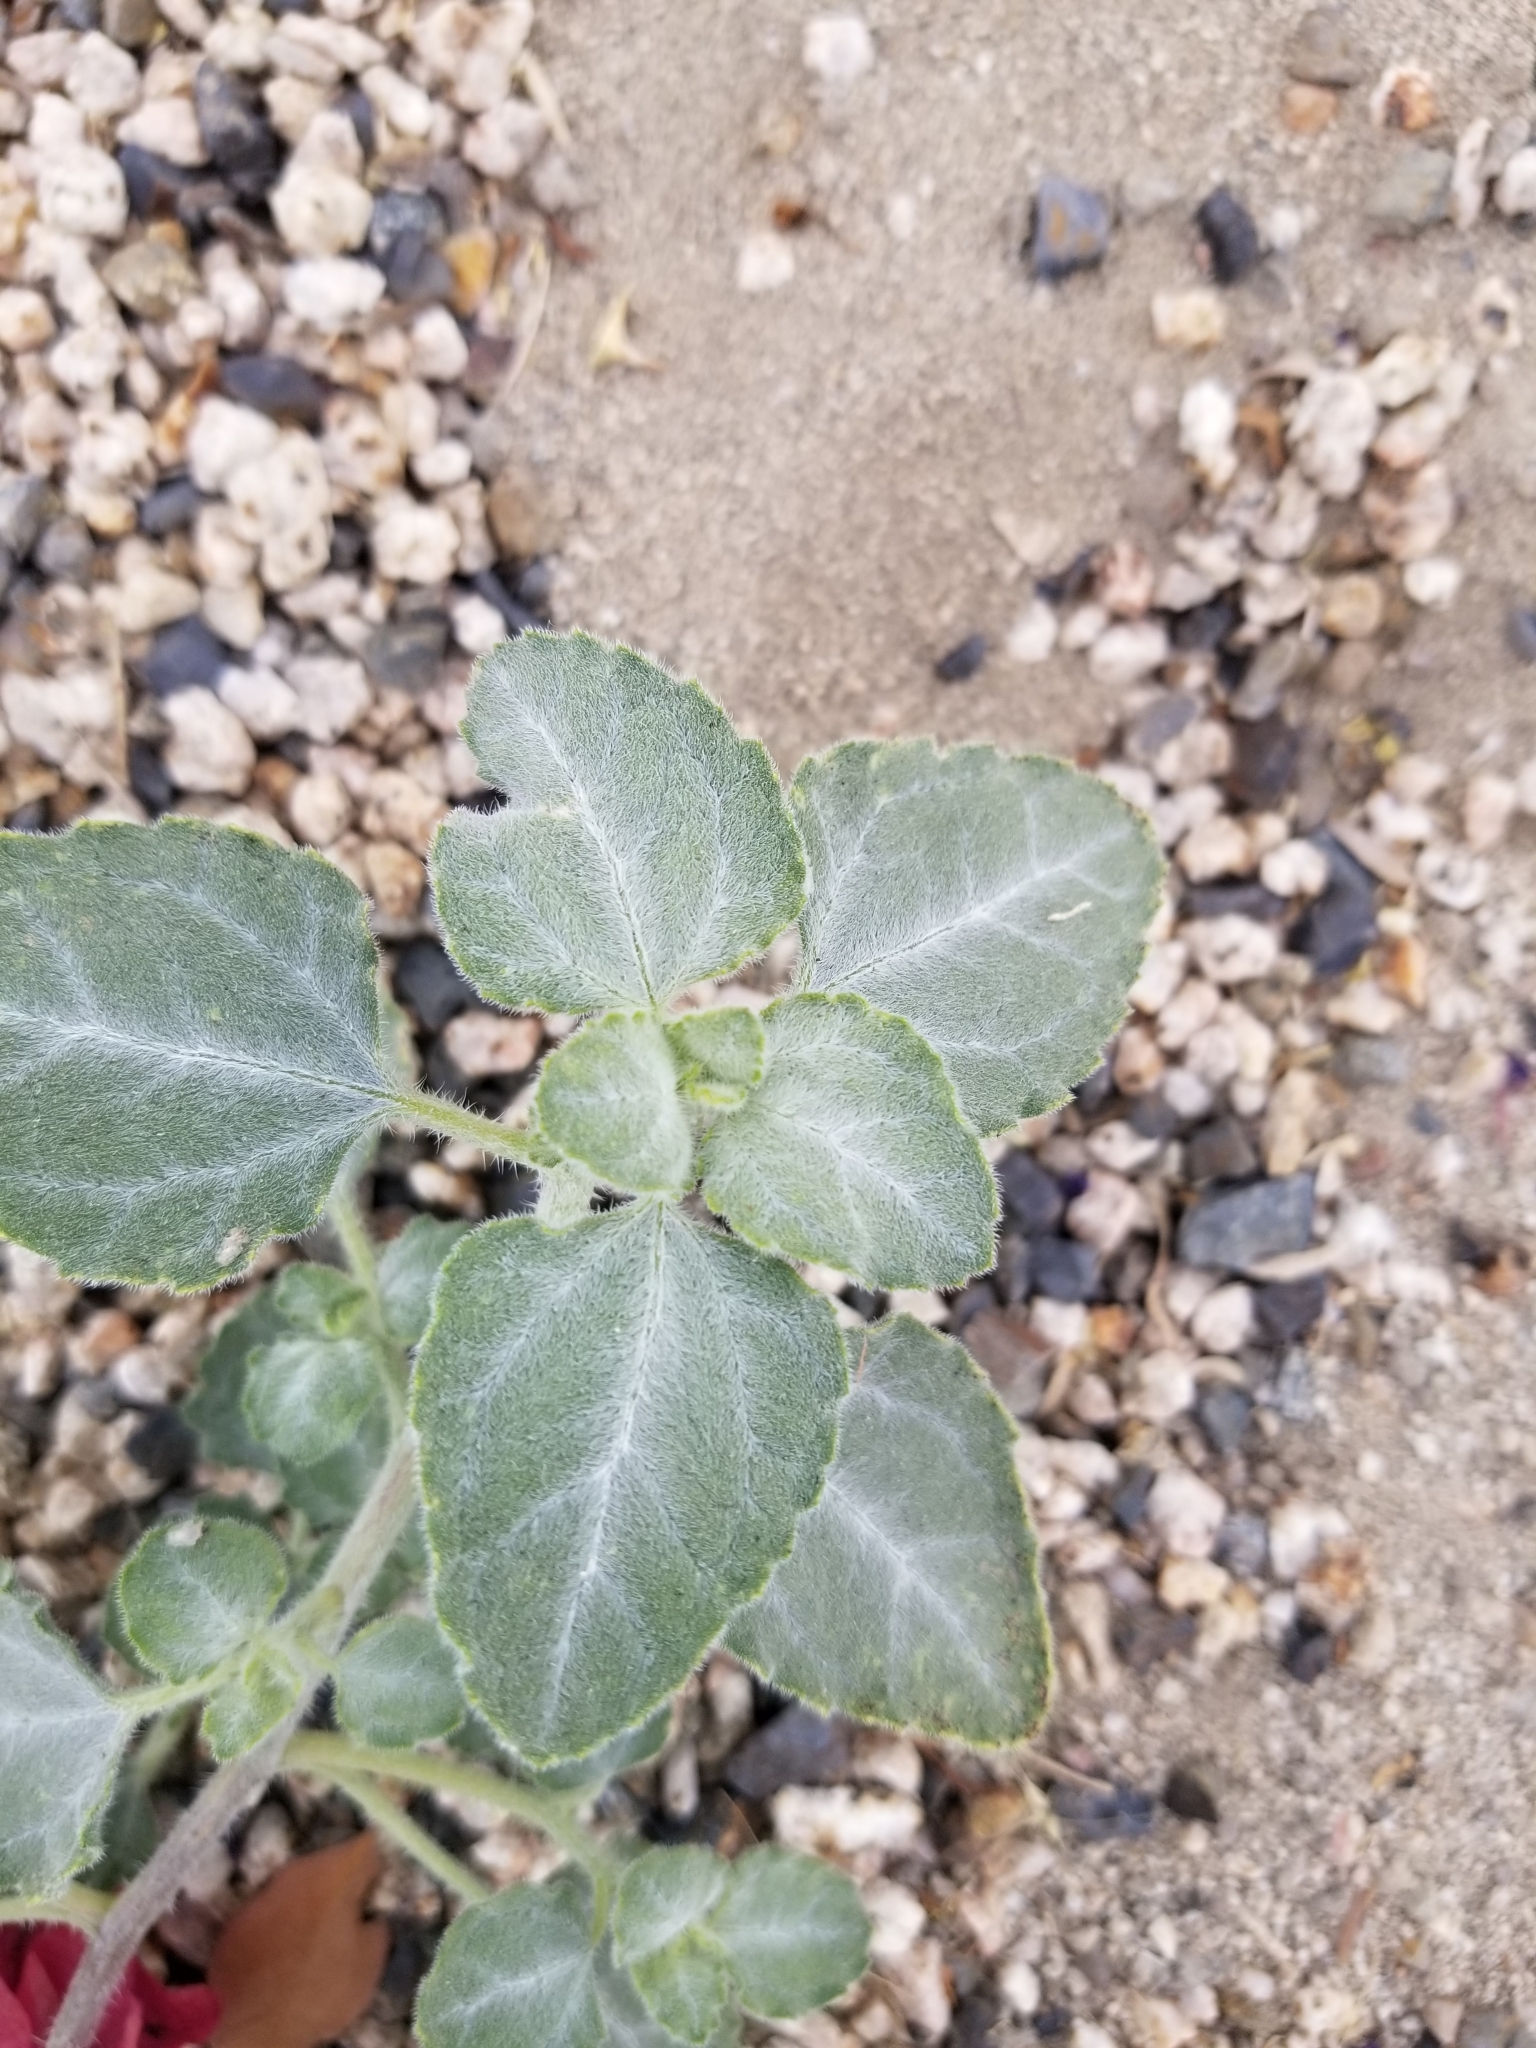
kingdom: Plantae
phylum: Tracheophyta
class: Magnoliopsida
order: Asterales
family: Asteraceae
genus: Dicoria
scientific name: Dicoria canescens
